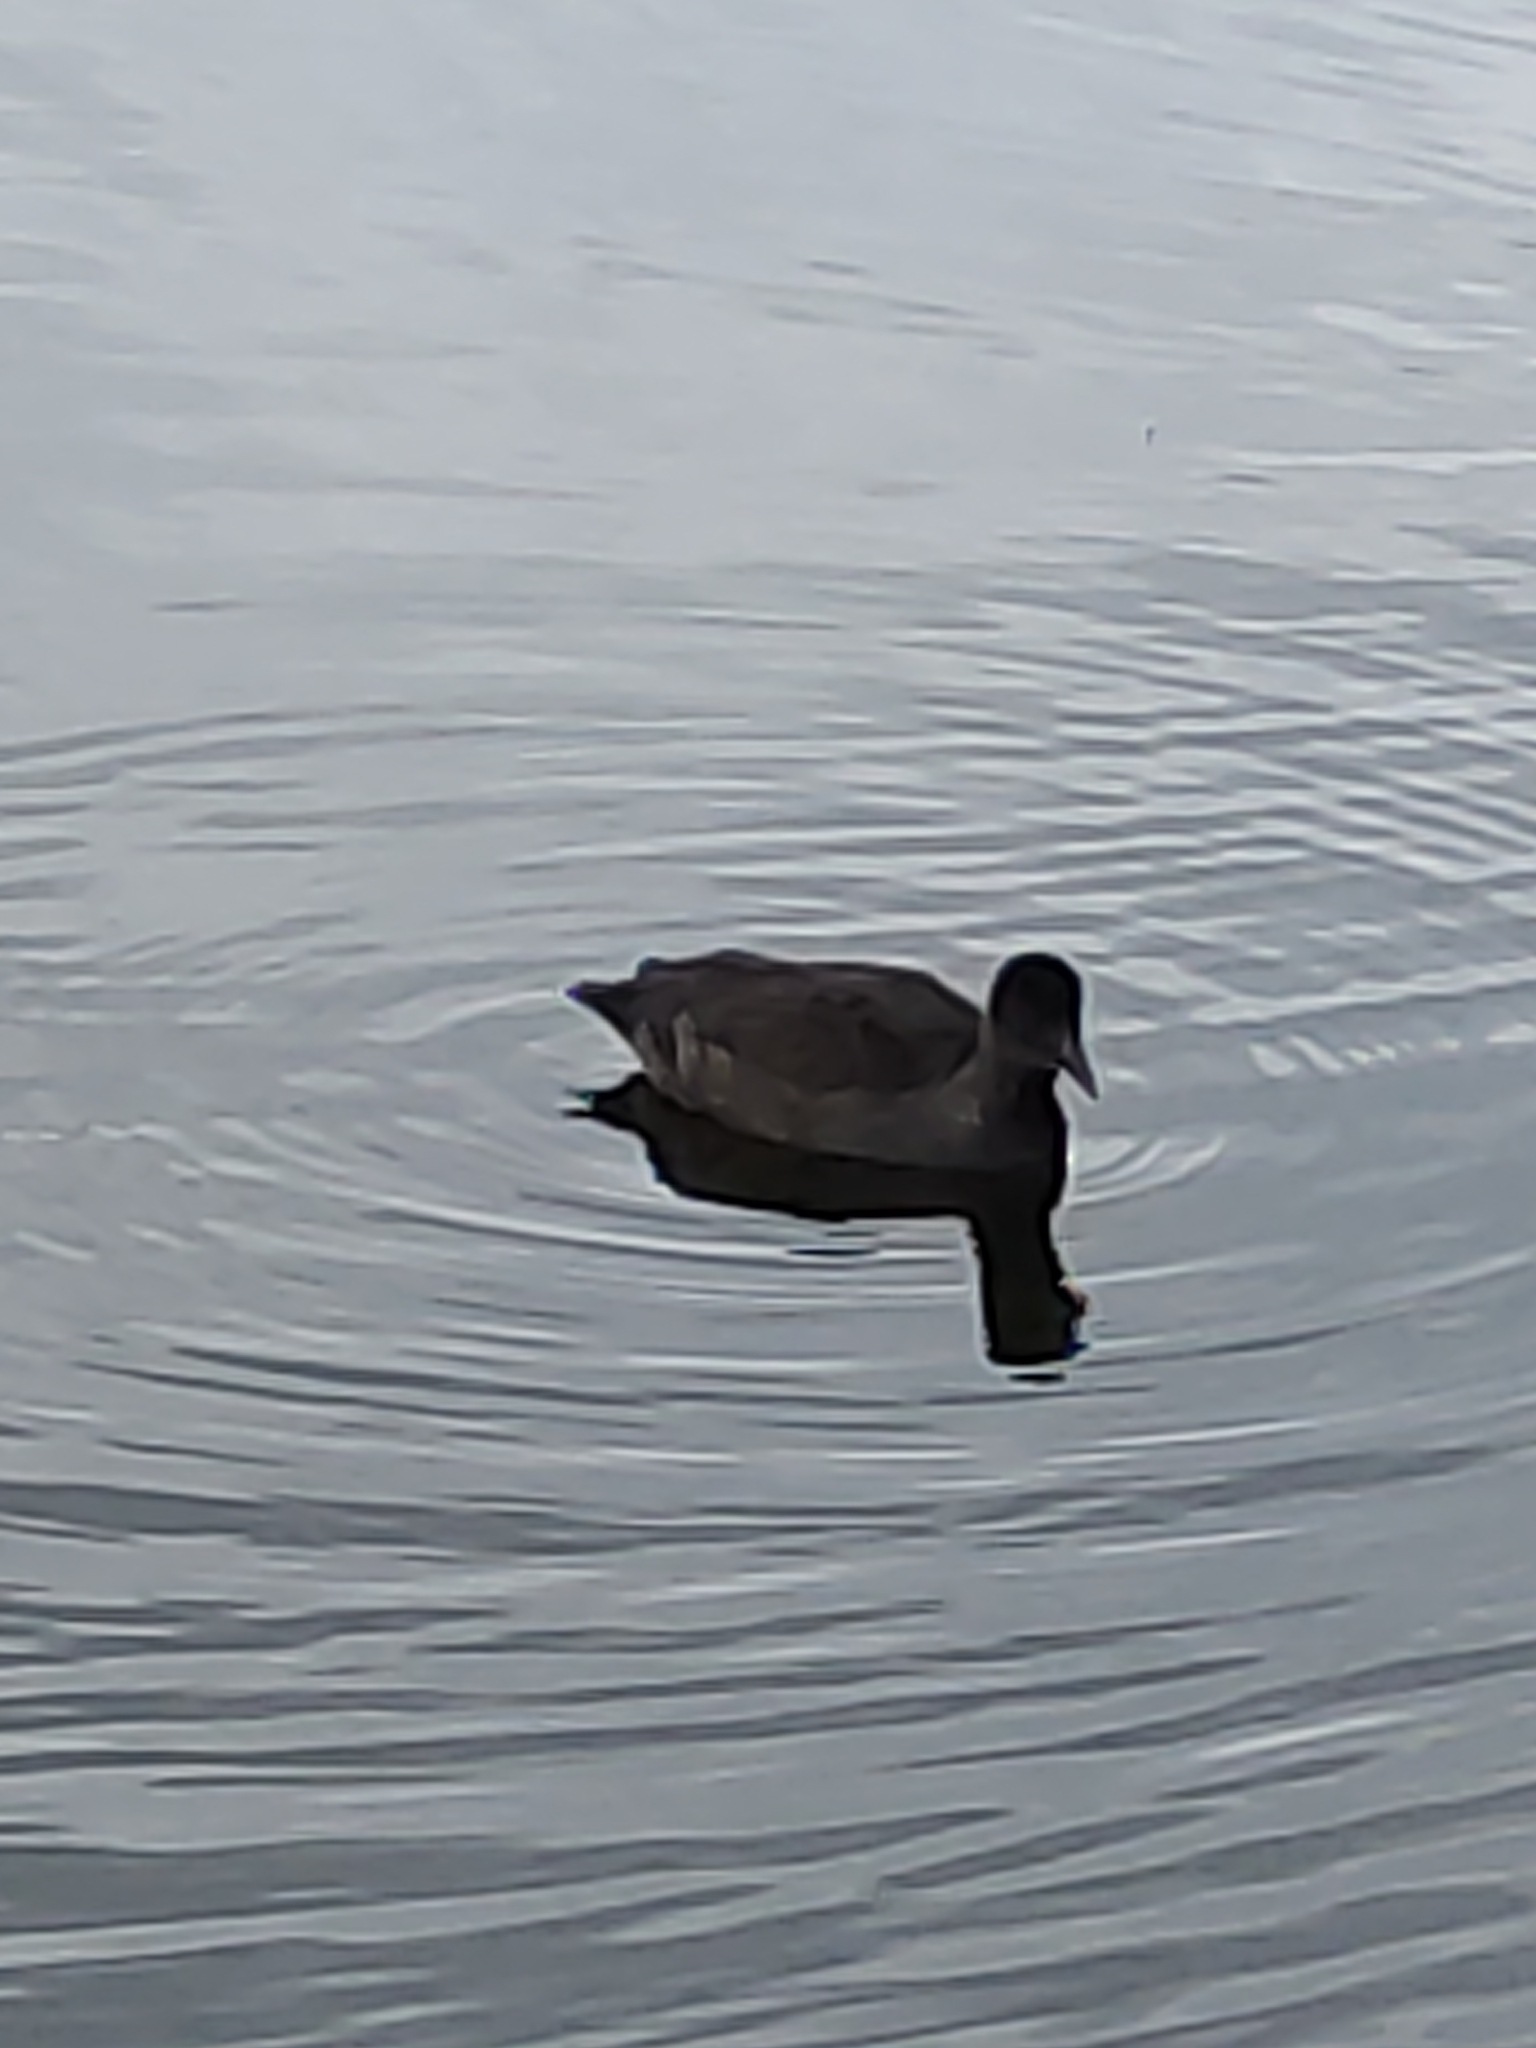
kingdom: Animalia
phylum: Chordata
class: Aves
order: Gruiformes
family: Rallidae
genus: Fulica
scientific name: Fulica atra
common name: Eurasian coot
